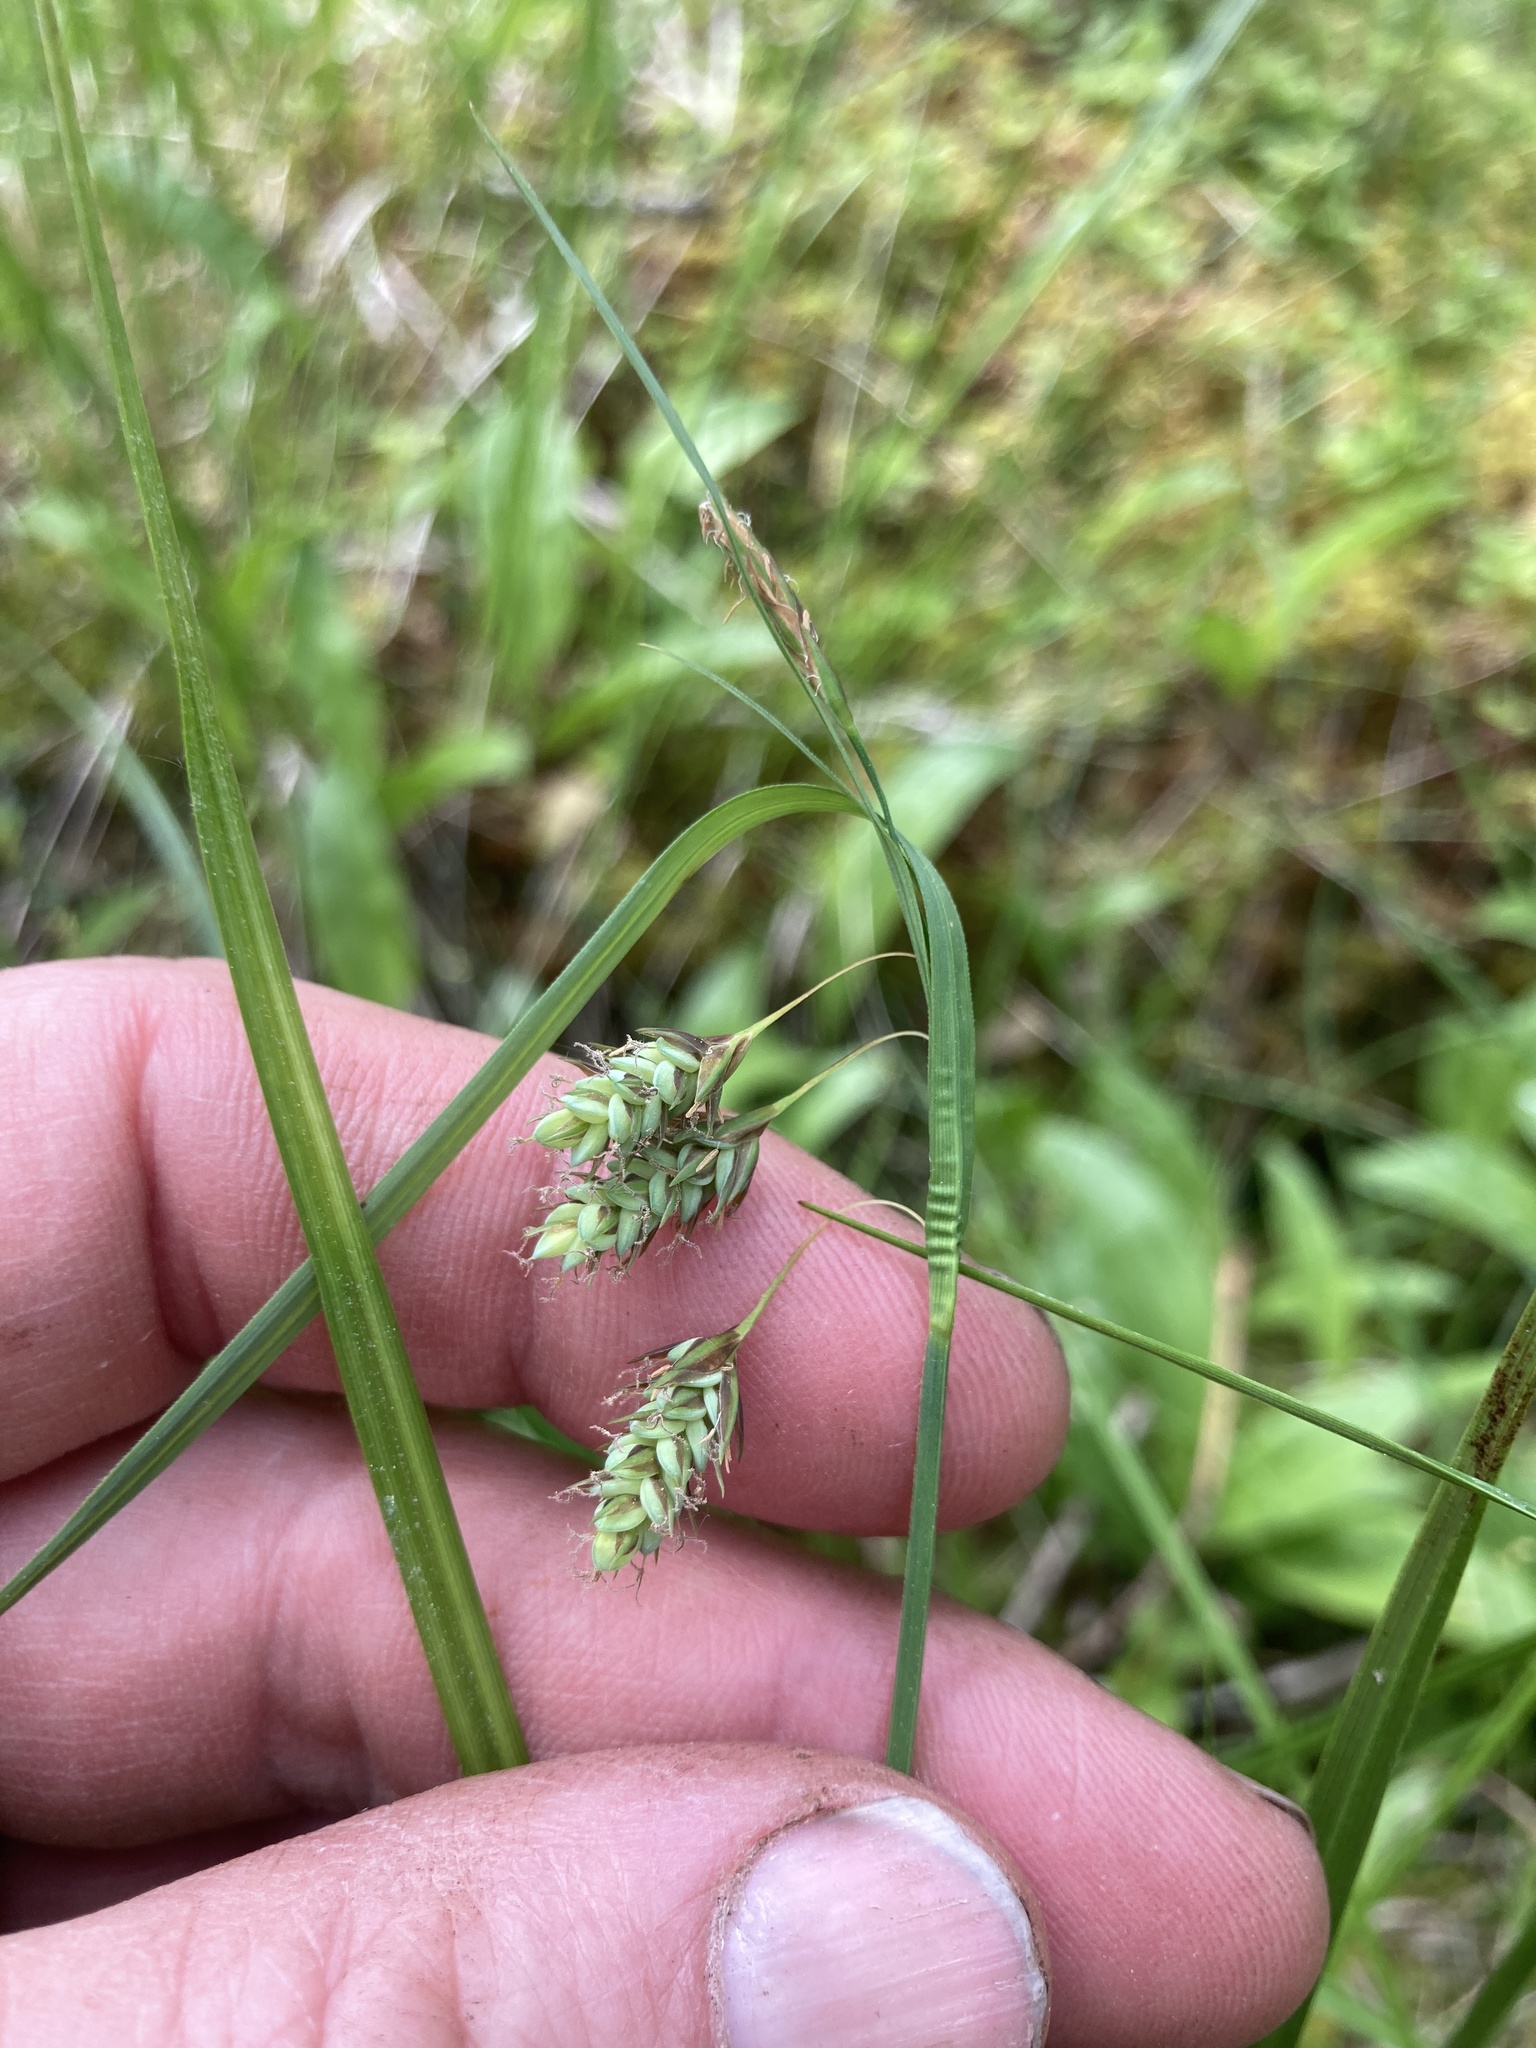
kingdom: Plantae
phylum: Tracheophyta
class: Liliopsida
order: Poales
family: Cyperaceae
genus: Carex
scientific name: Carex magellanica
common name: Bog sedge
